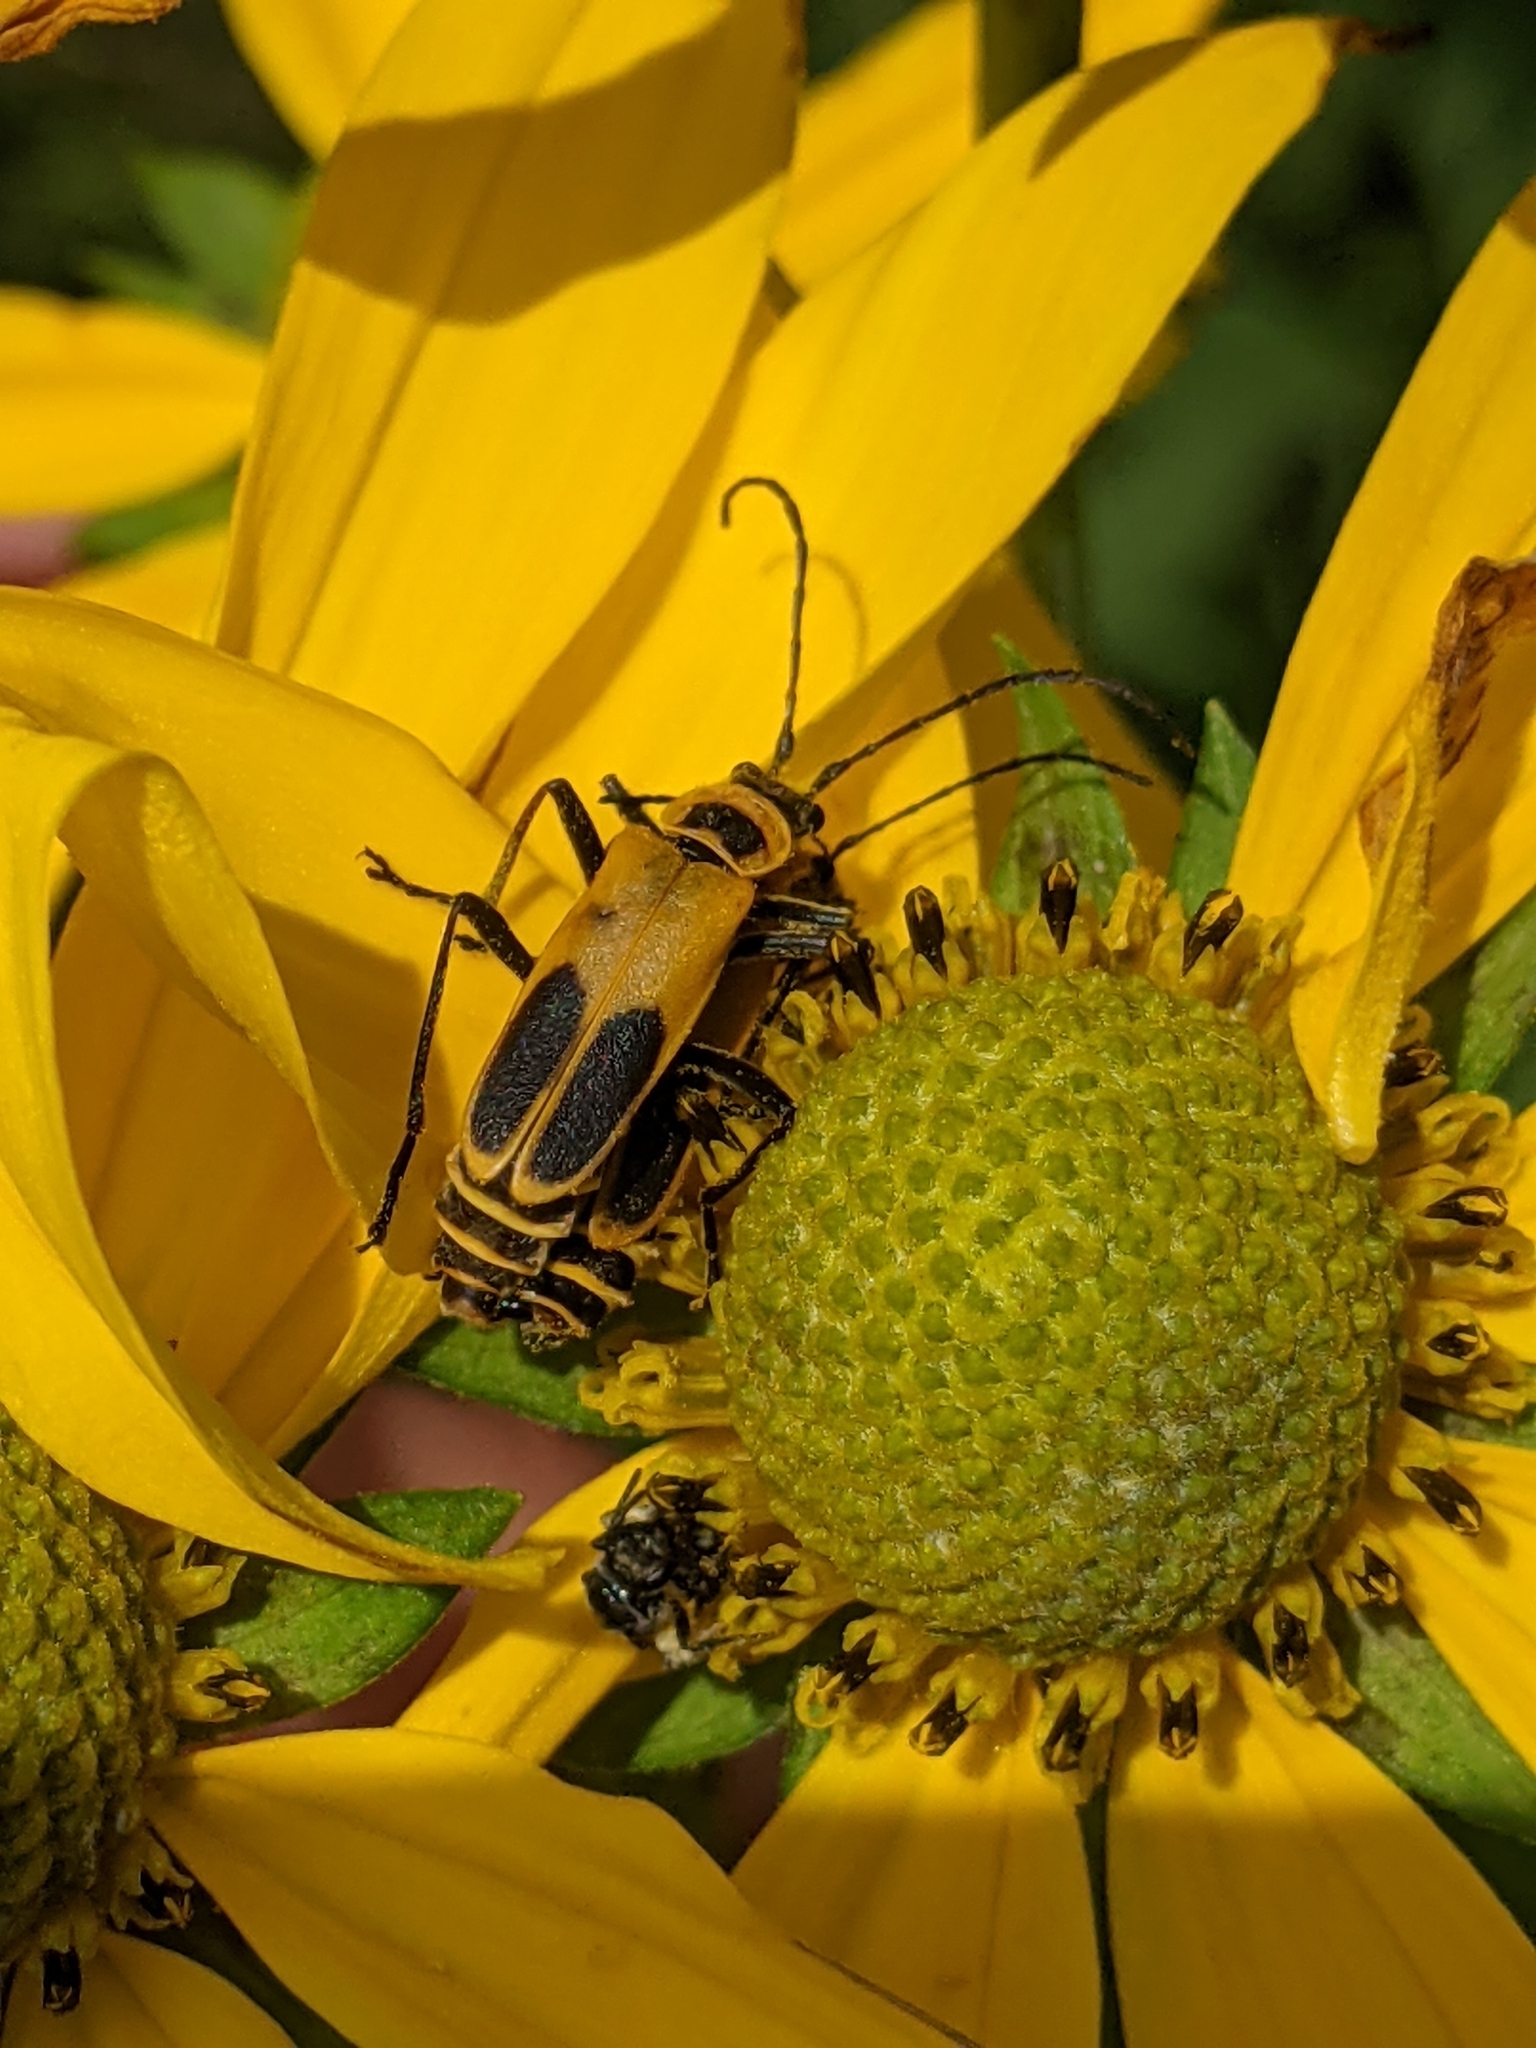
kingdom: Animalia
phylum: Arthropoda
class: Insecta
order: Coleoptera
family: Cantharidae
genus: Chauliognathus
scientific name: Chauliognathus pensylvanicus
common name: Goldenrod soldier beetle
